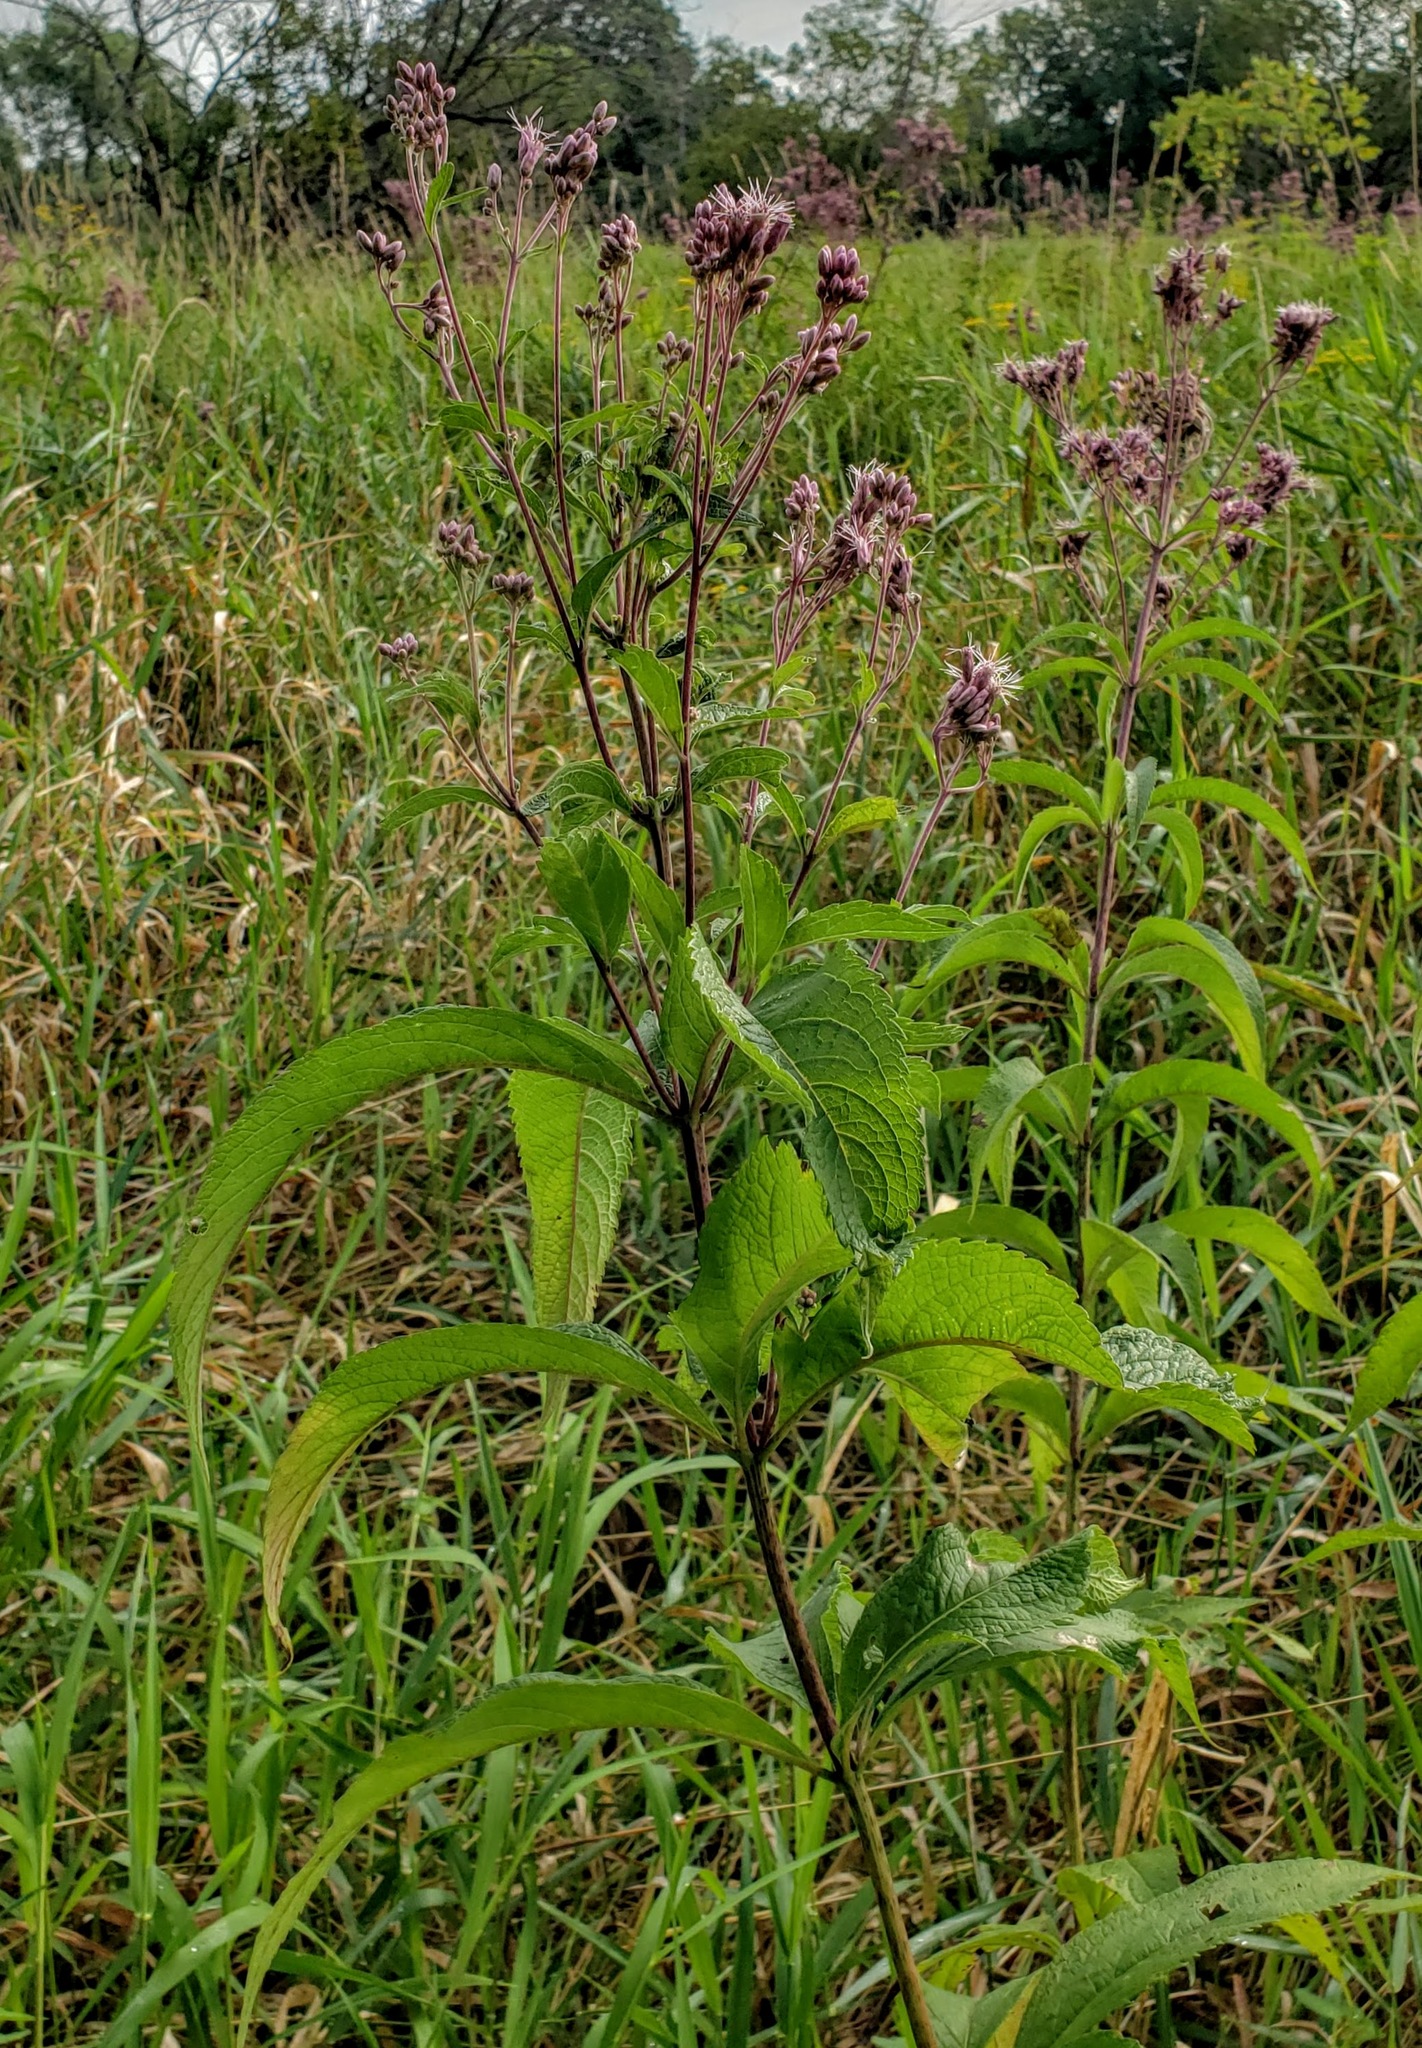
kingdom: Plantae
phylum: Tracheophyta
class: Magnoliopsida
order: Asterales
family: Asteraceae
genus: Eutrochium
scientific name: Eutrochium maculatum
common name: Spotted joe pye weed
